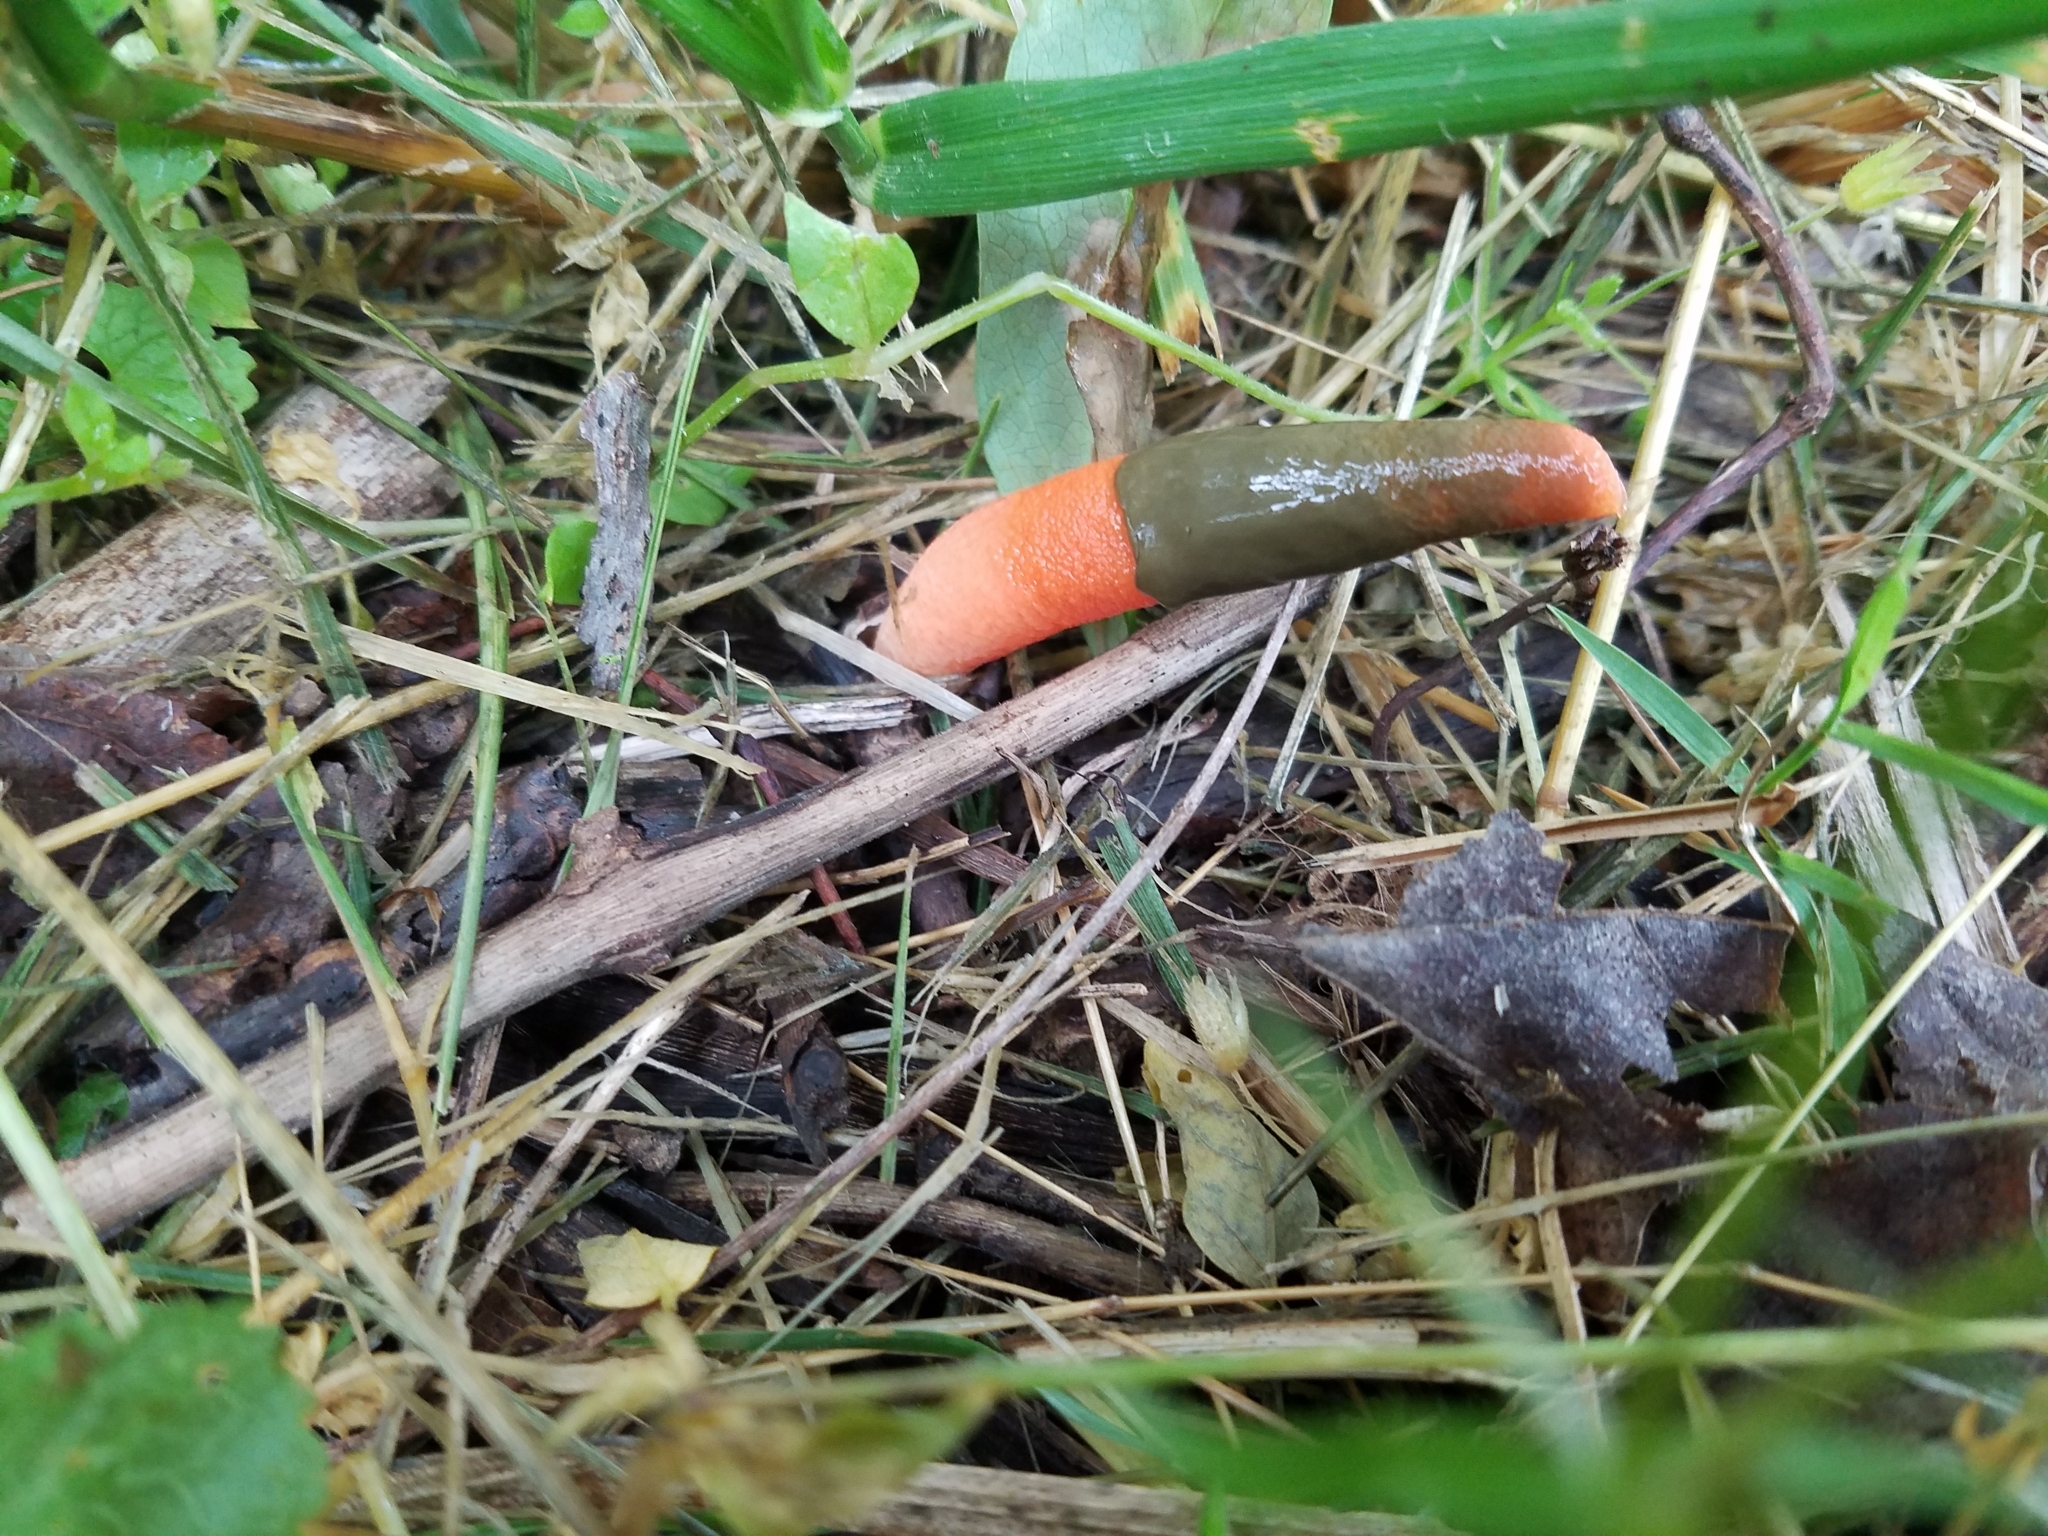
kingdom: Fungi
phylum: Basidiomycota
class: Agaricomycetes
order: Phallales
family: Phallaceae
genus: Mutinus
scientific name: Mutinus elegans
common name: Devil's dipstick
